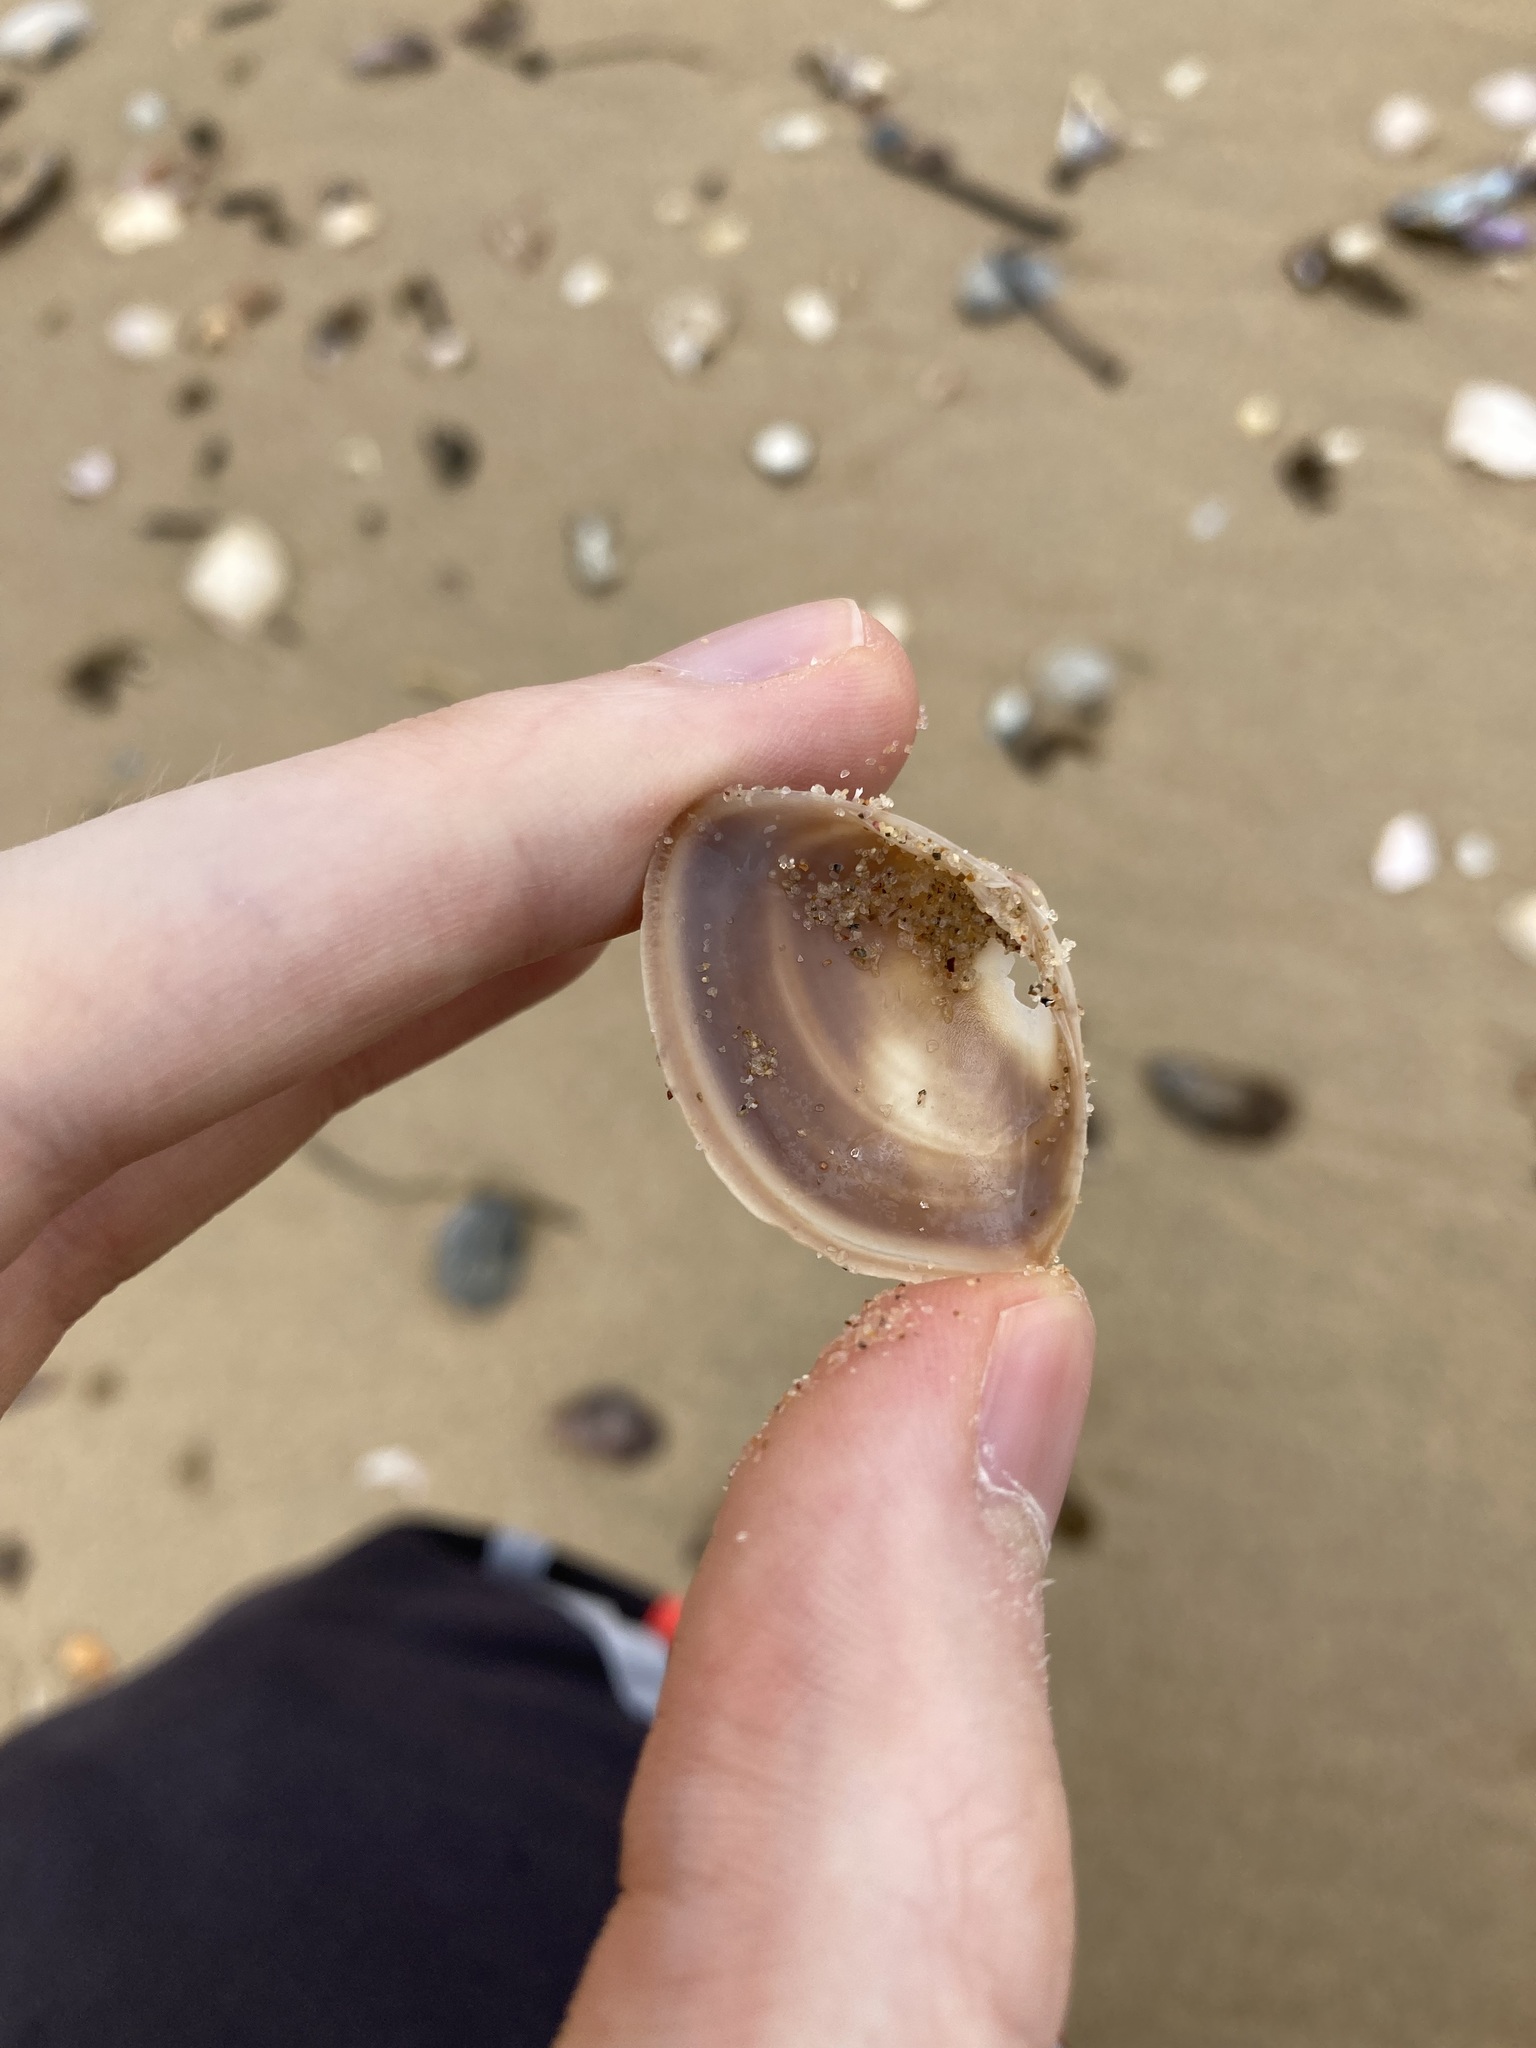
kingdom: Animalia
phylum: Mollusca
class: Bivalvia
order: Venerida
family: Mactridae
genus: Mactra
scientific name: Mactra pusilla
